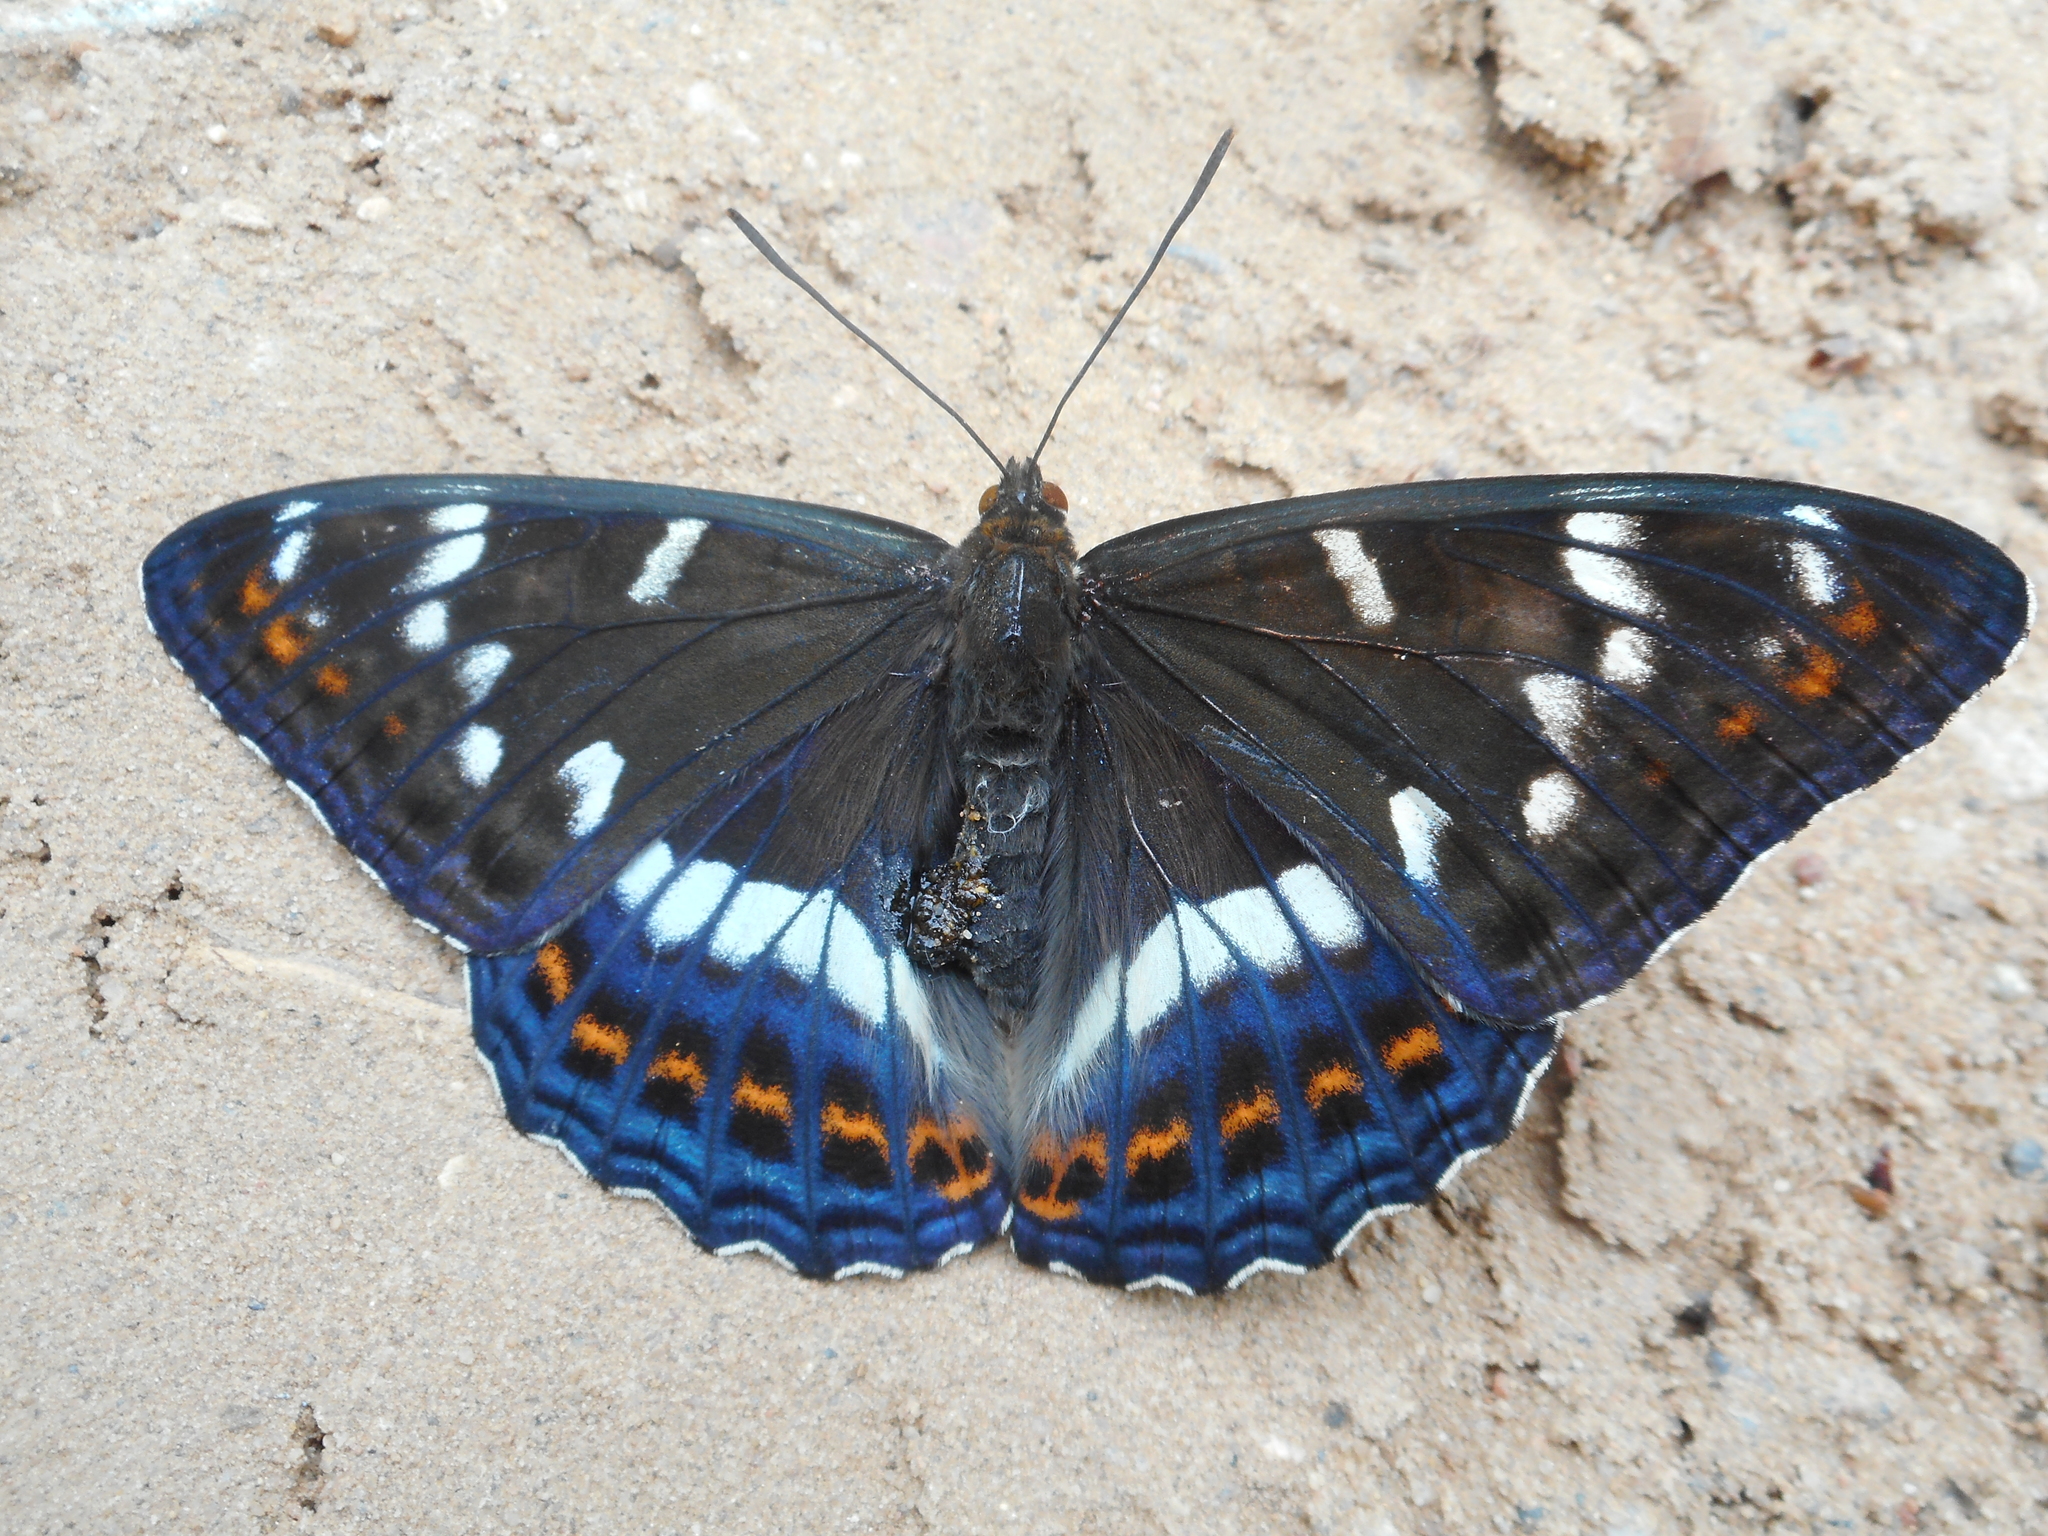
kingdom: Animalia
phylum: Arthropoda
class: Insecta
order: Lepidoptera
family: Nymphalidae
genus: Limenitis
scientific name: Limenitis populi
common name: Poplar admiral
